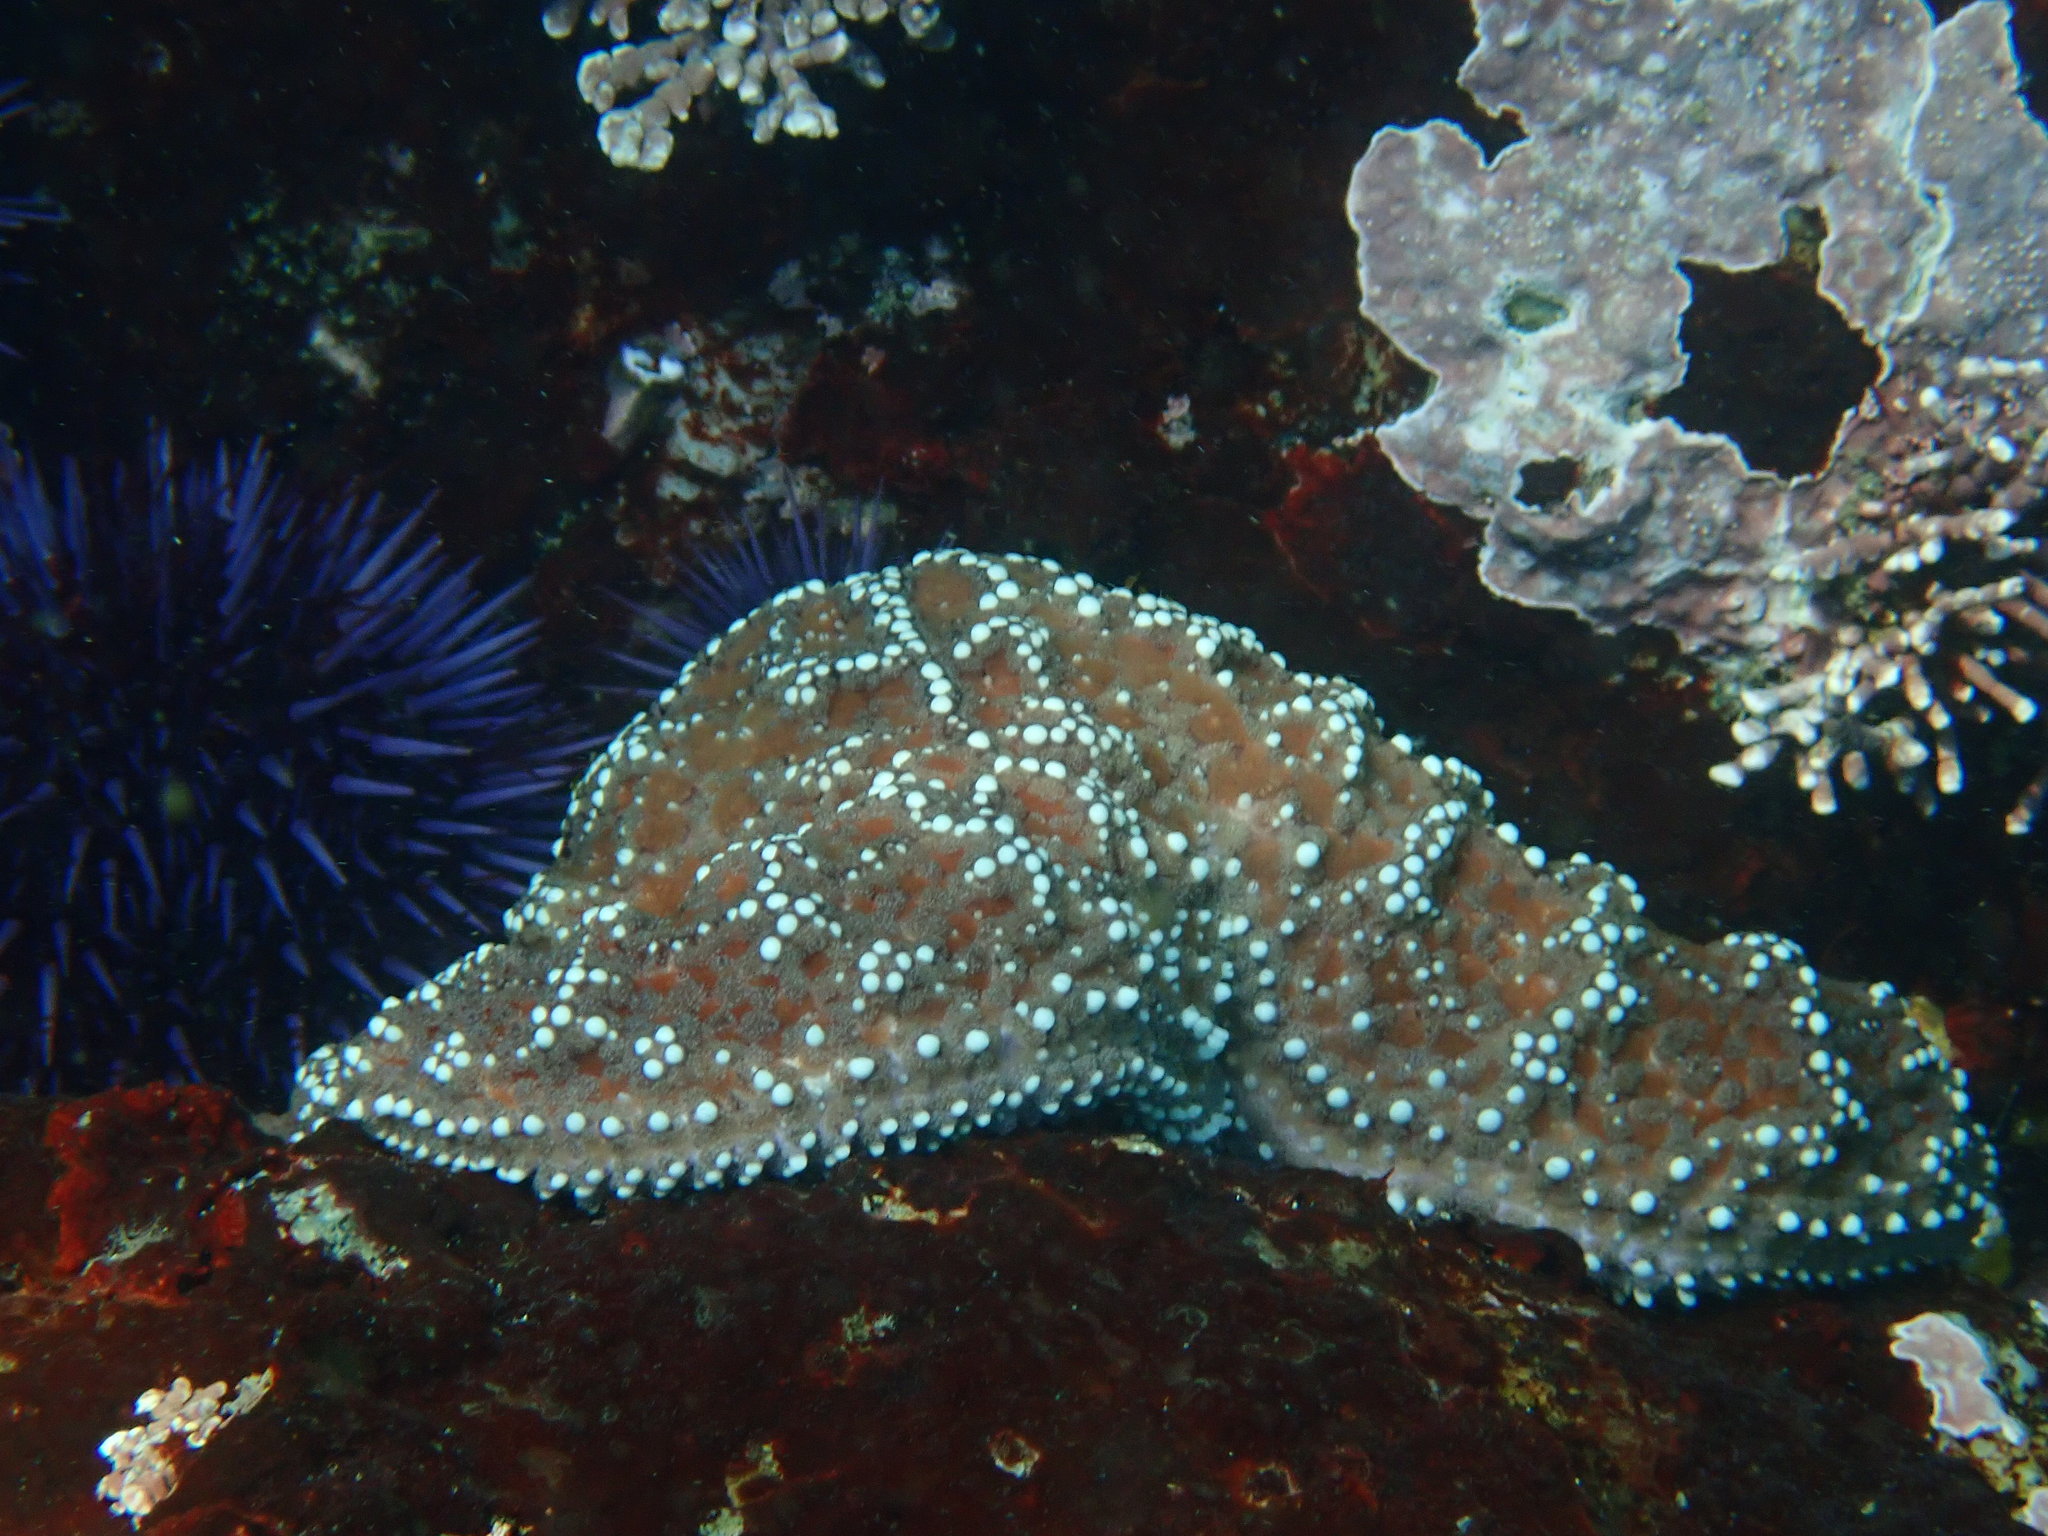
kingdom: Animalia
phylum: Echinodermata
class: Asteroidea
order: Forcipulatida
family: Asteriidae
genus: Pisaster
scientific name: Pisaster ochraceus
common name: Ochre stars
